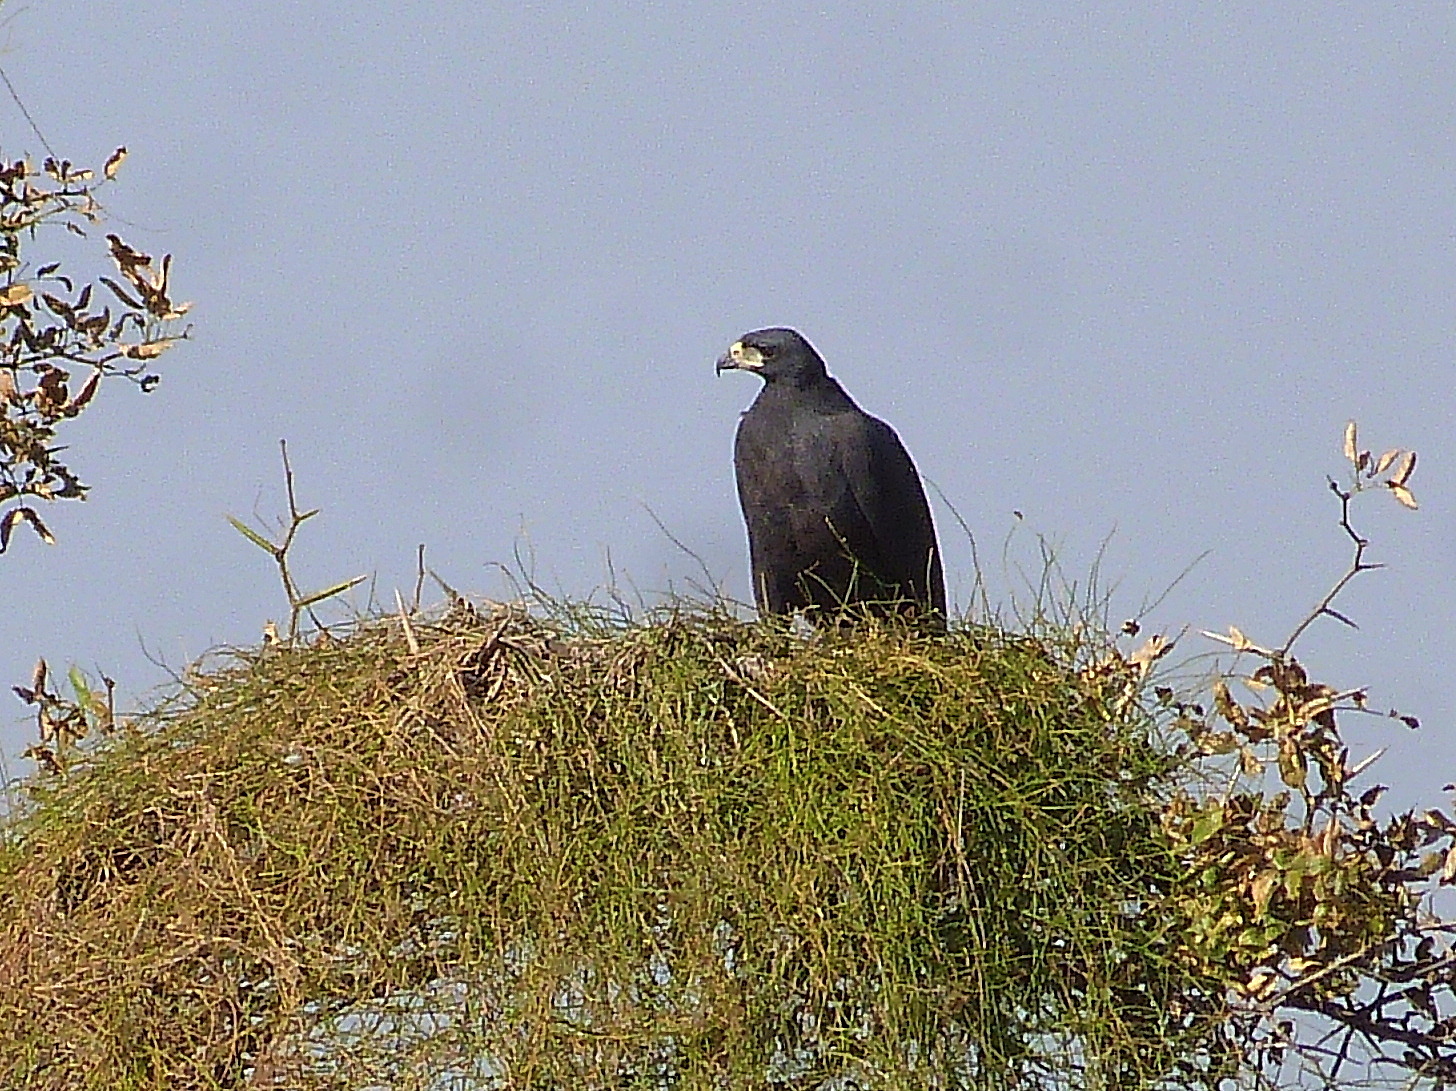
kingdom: Animalia
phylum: Chordata
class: Aves
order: Accipitriformes
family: Accipitridae
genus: Buteogallus
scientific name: Buteogallus urubitinga
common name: Great black hawk
